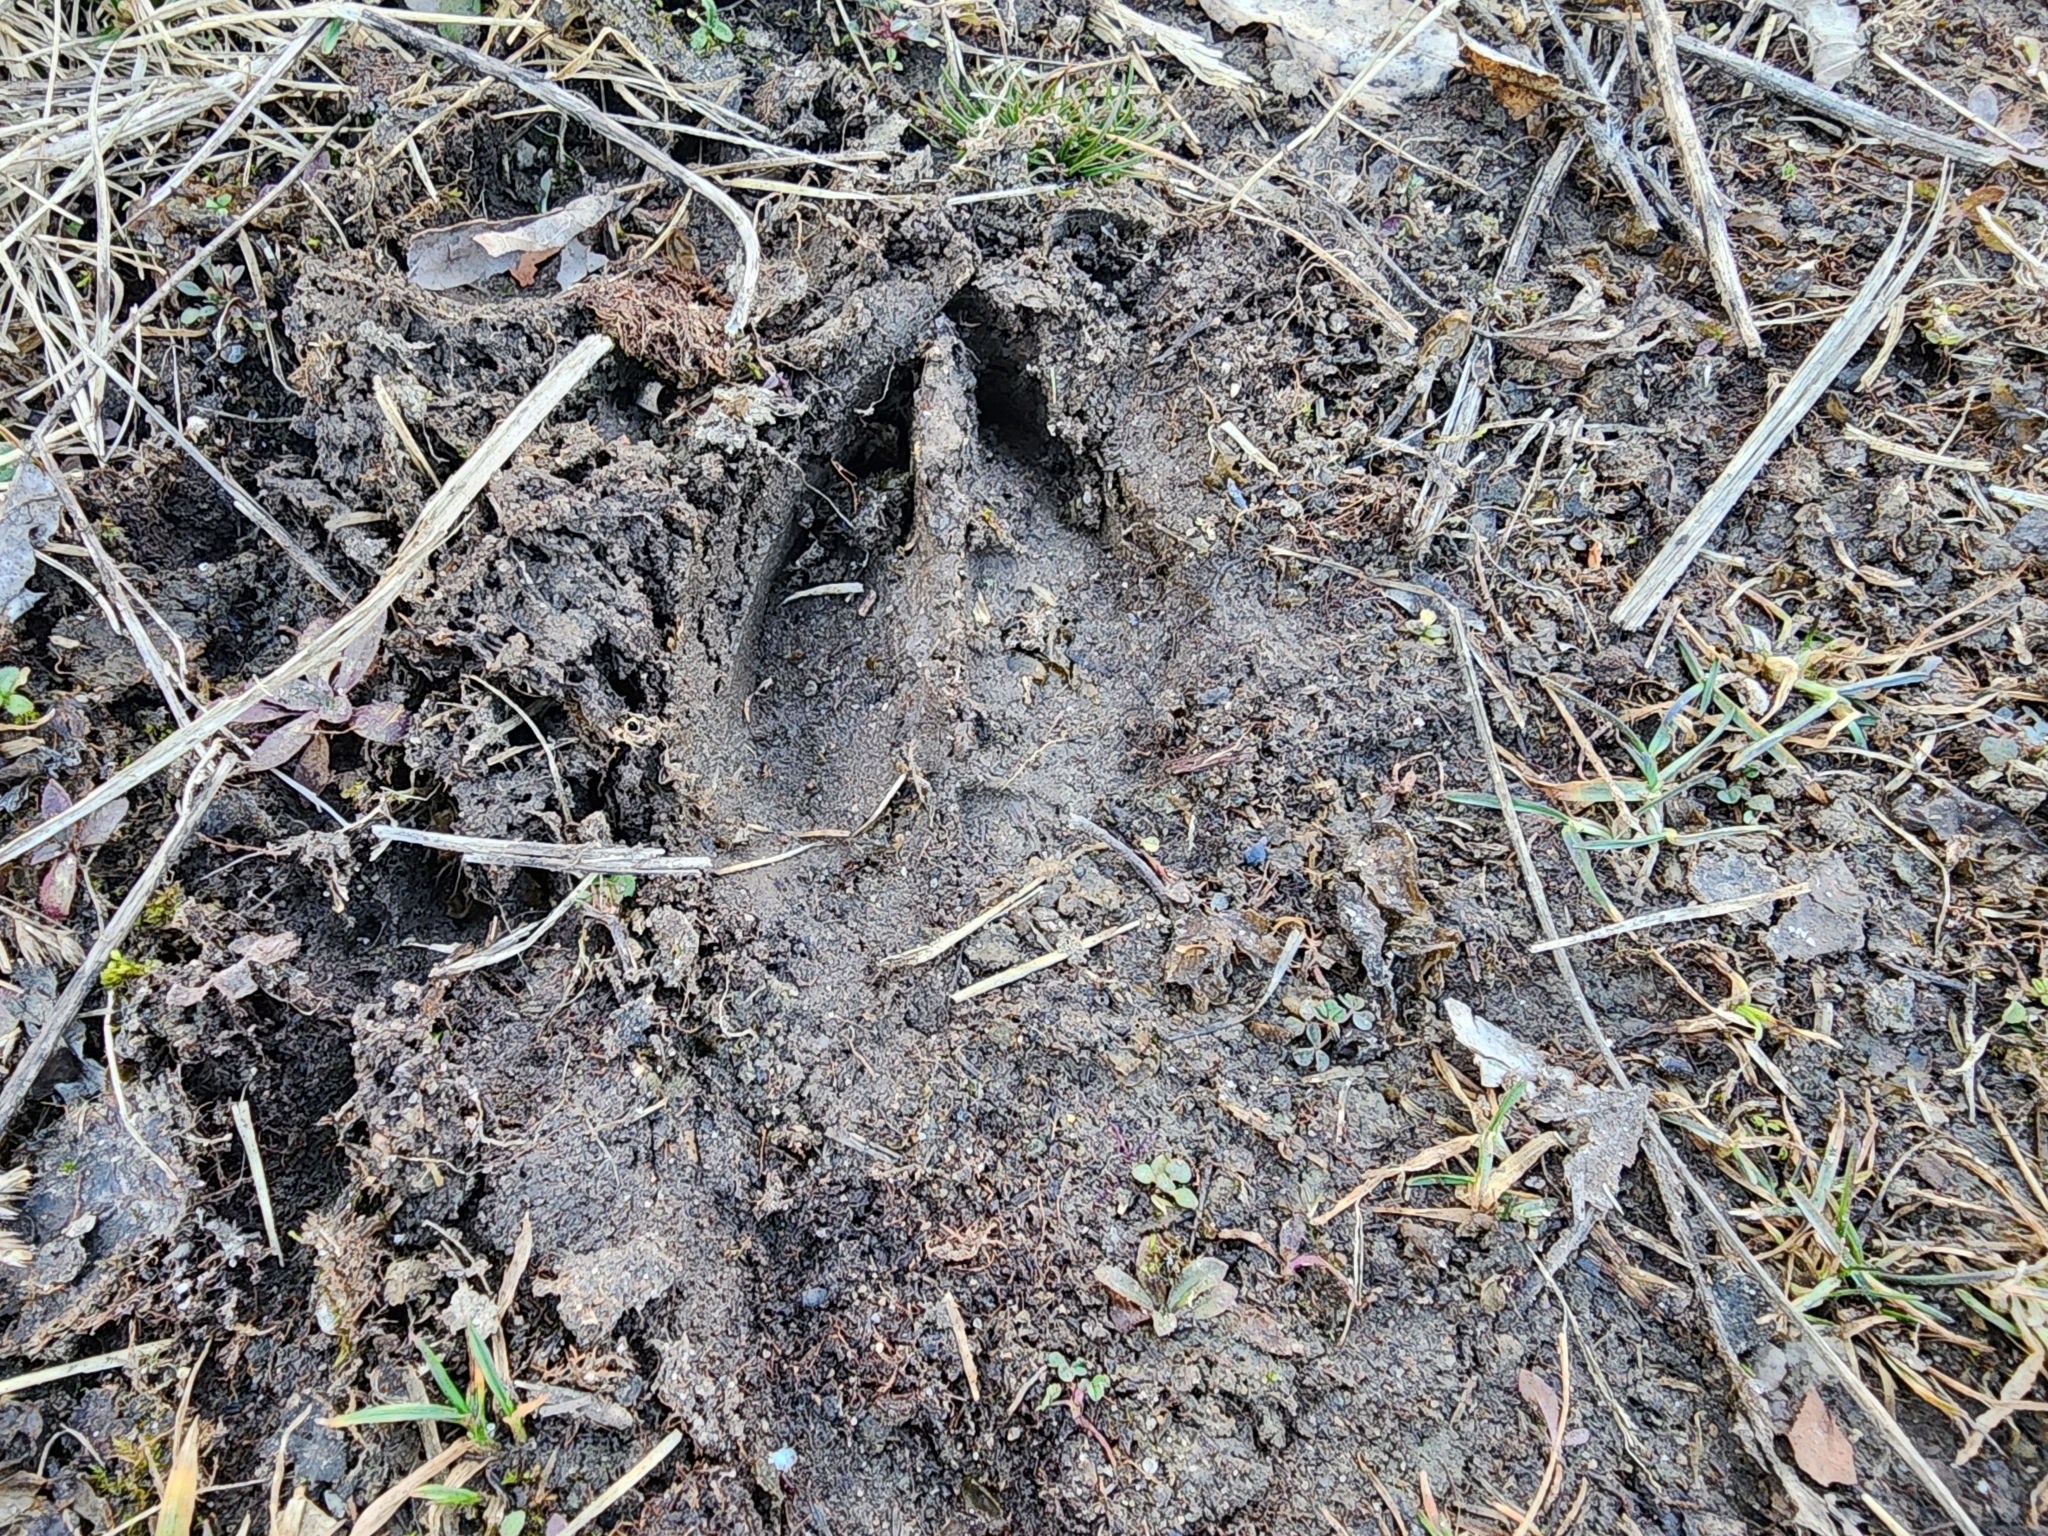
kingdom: Animalia
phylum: Chordata
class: Mammalia
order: Artiodactyla
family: Cervidae
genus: Odocoileus
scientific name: Odocoileus virginianus
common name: White-tailed deer
